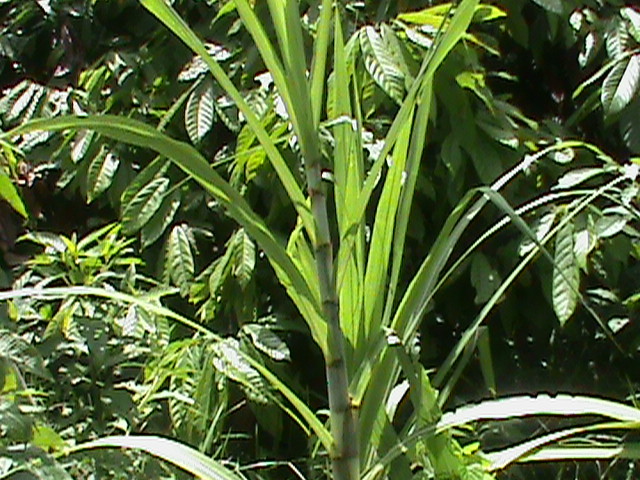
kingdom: Plantae
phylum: Tracheophyta
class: Liliopsida
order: Poales
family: Poaceae
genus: Saccharum
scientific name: Saccharum officinarum
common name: Sugarcane
